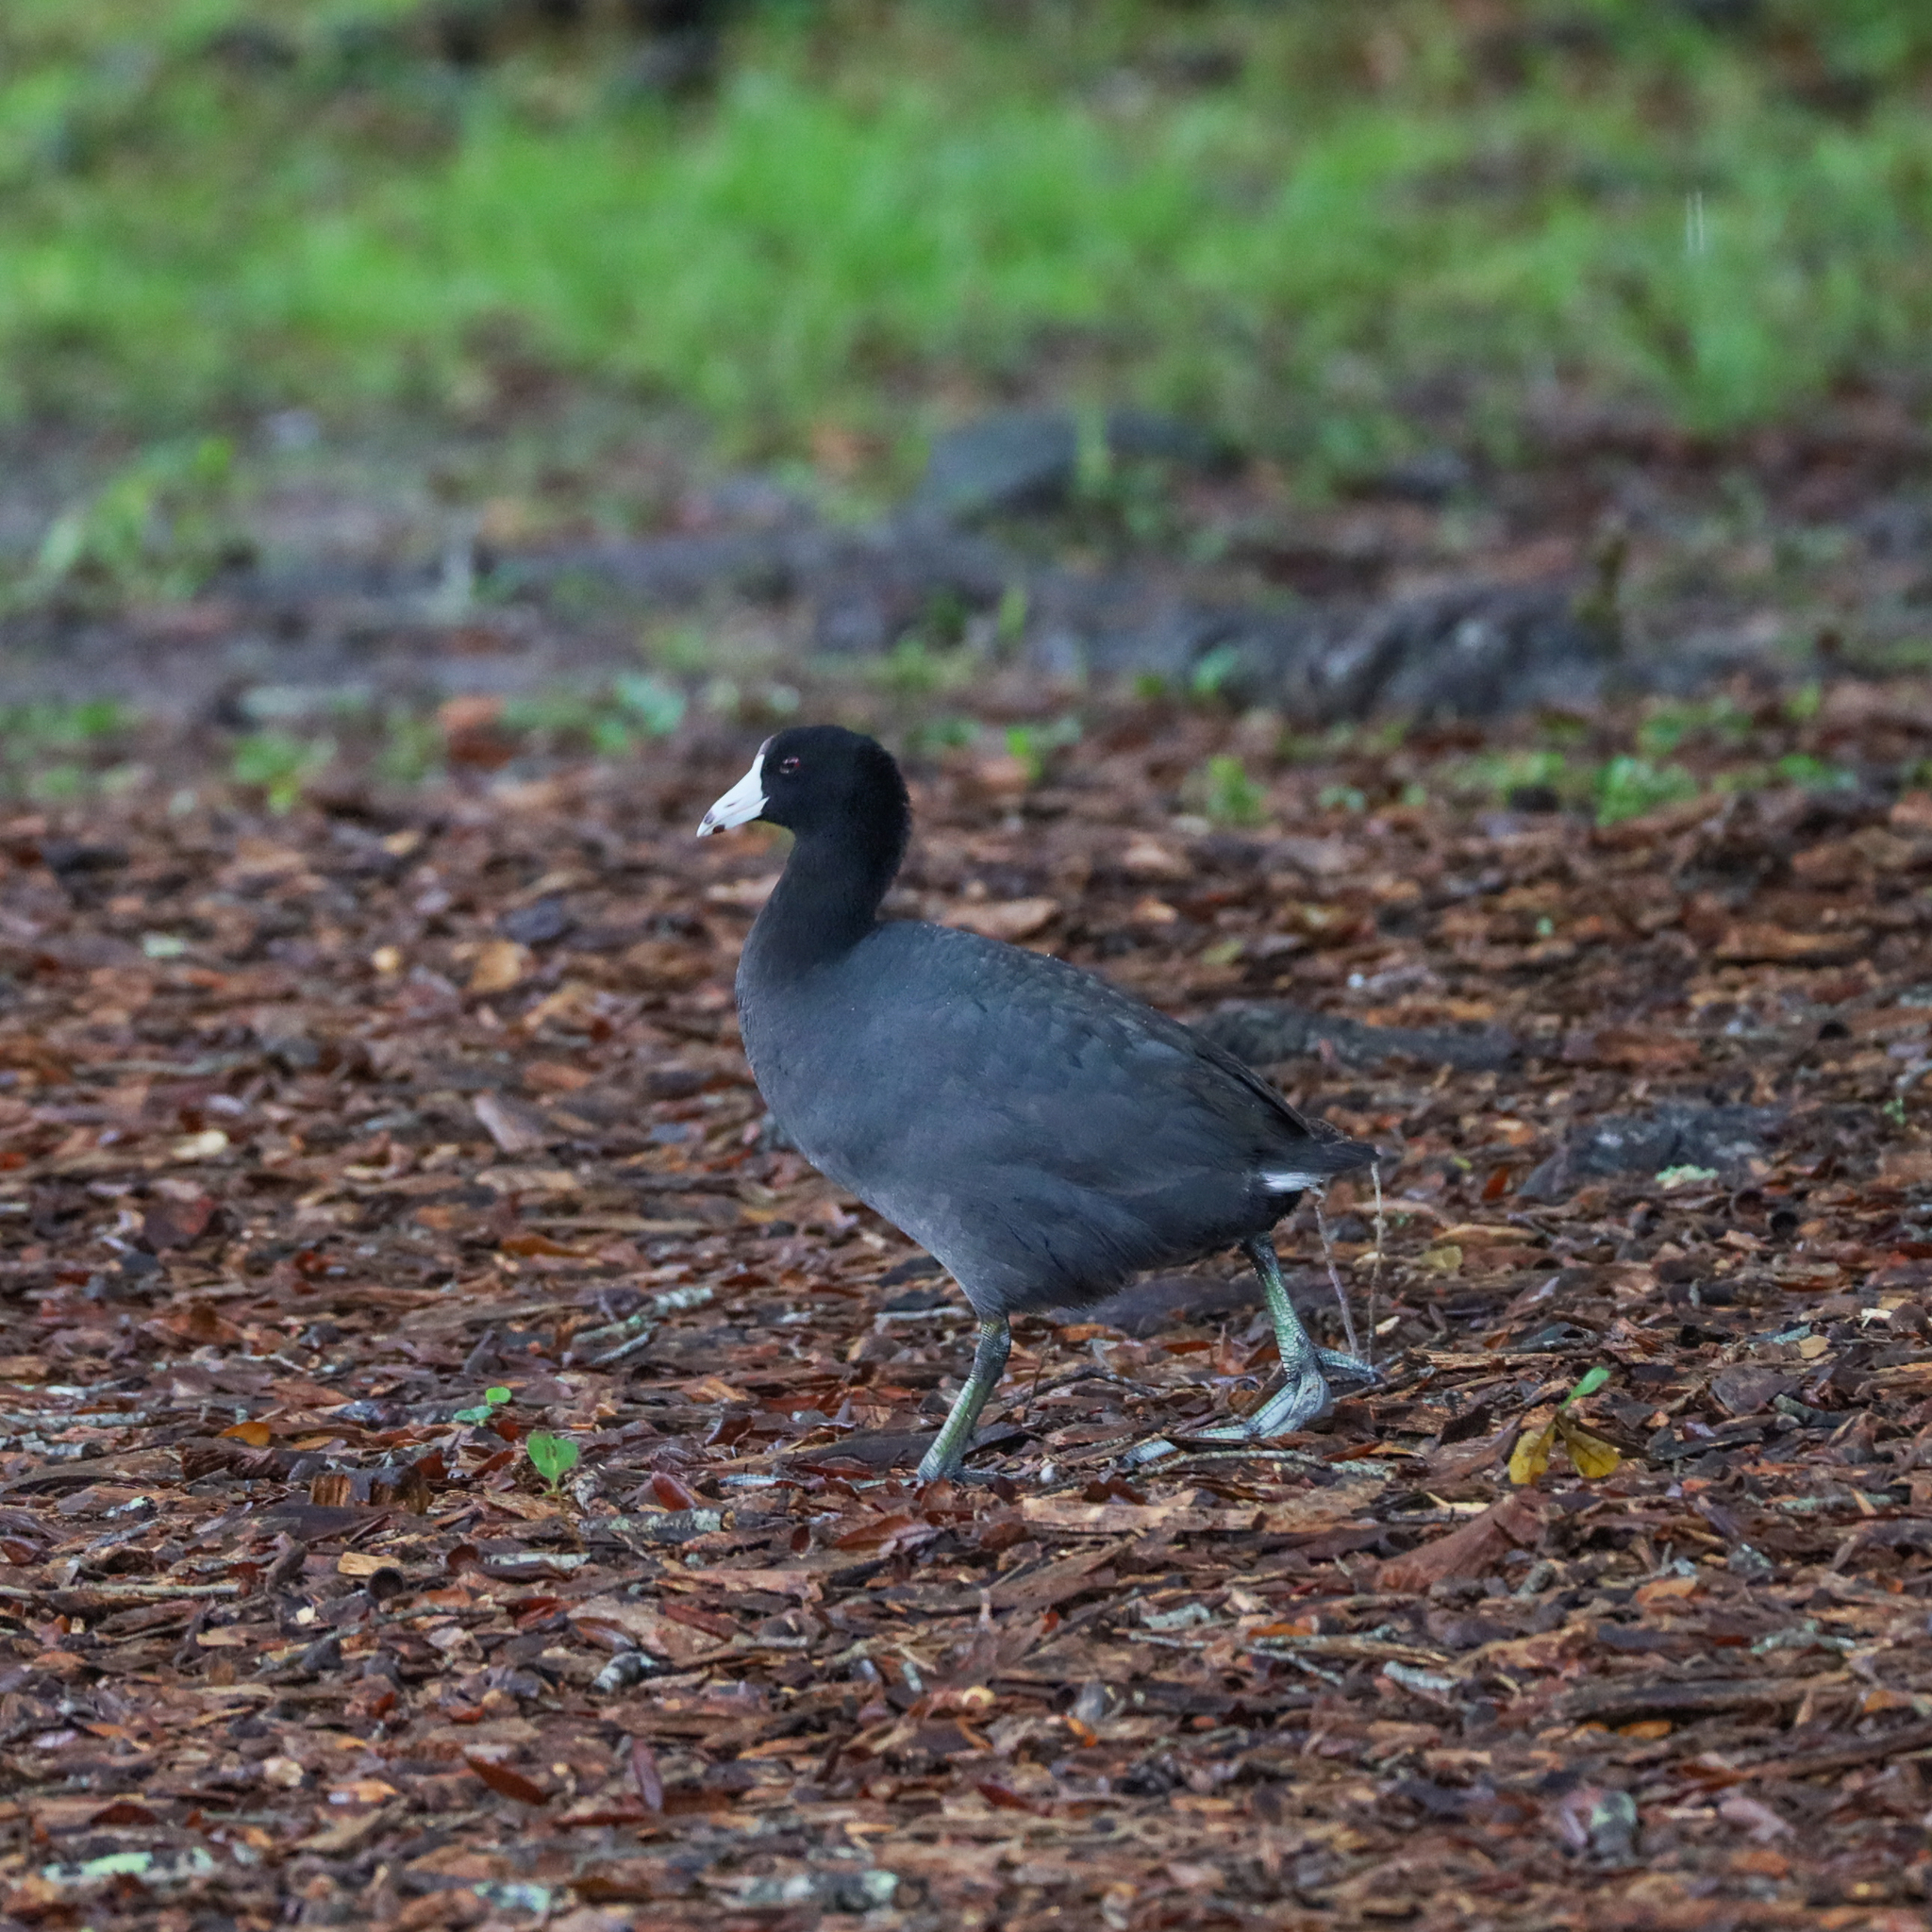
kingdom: Animalia
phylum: Chordata
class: Aves
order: Gruiformes
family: Rallidae
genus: Fulica
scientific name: Fulica americana
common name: American coot
